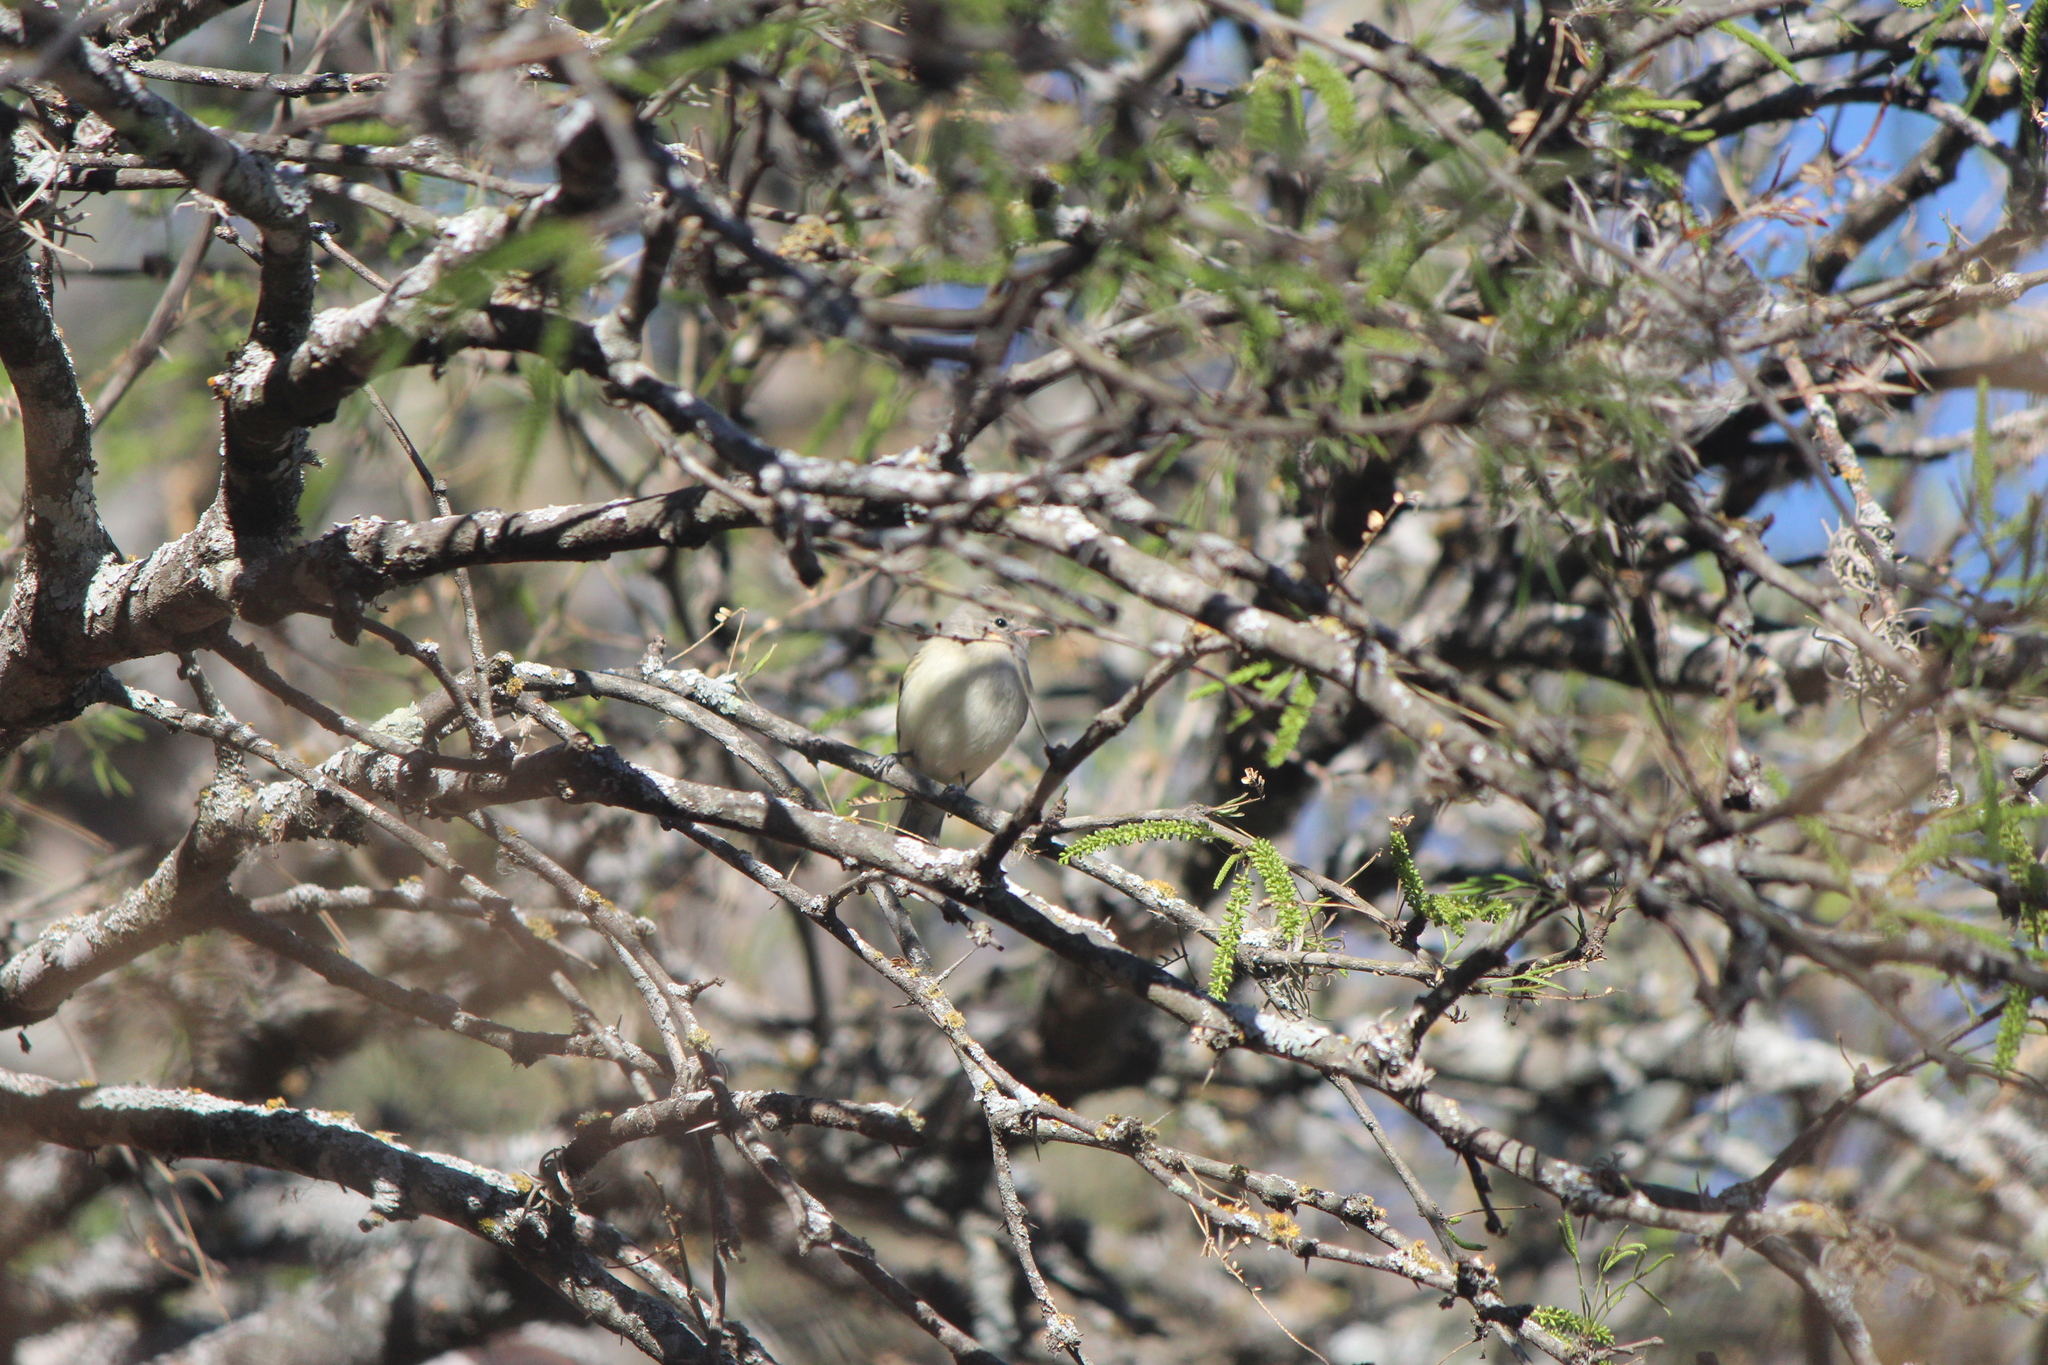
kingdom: Animalia
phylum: Chordata
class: Aves
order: Passeriformes
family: Tyrannidae
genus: Camptostoma
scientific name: Camptostoma imberbe
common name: Northern beardless-tyrannulet
